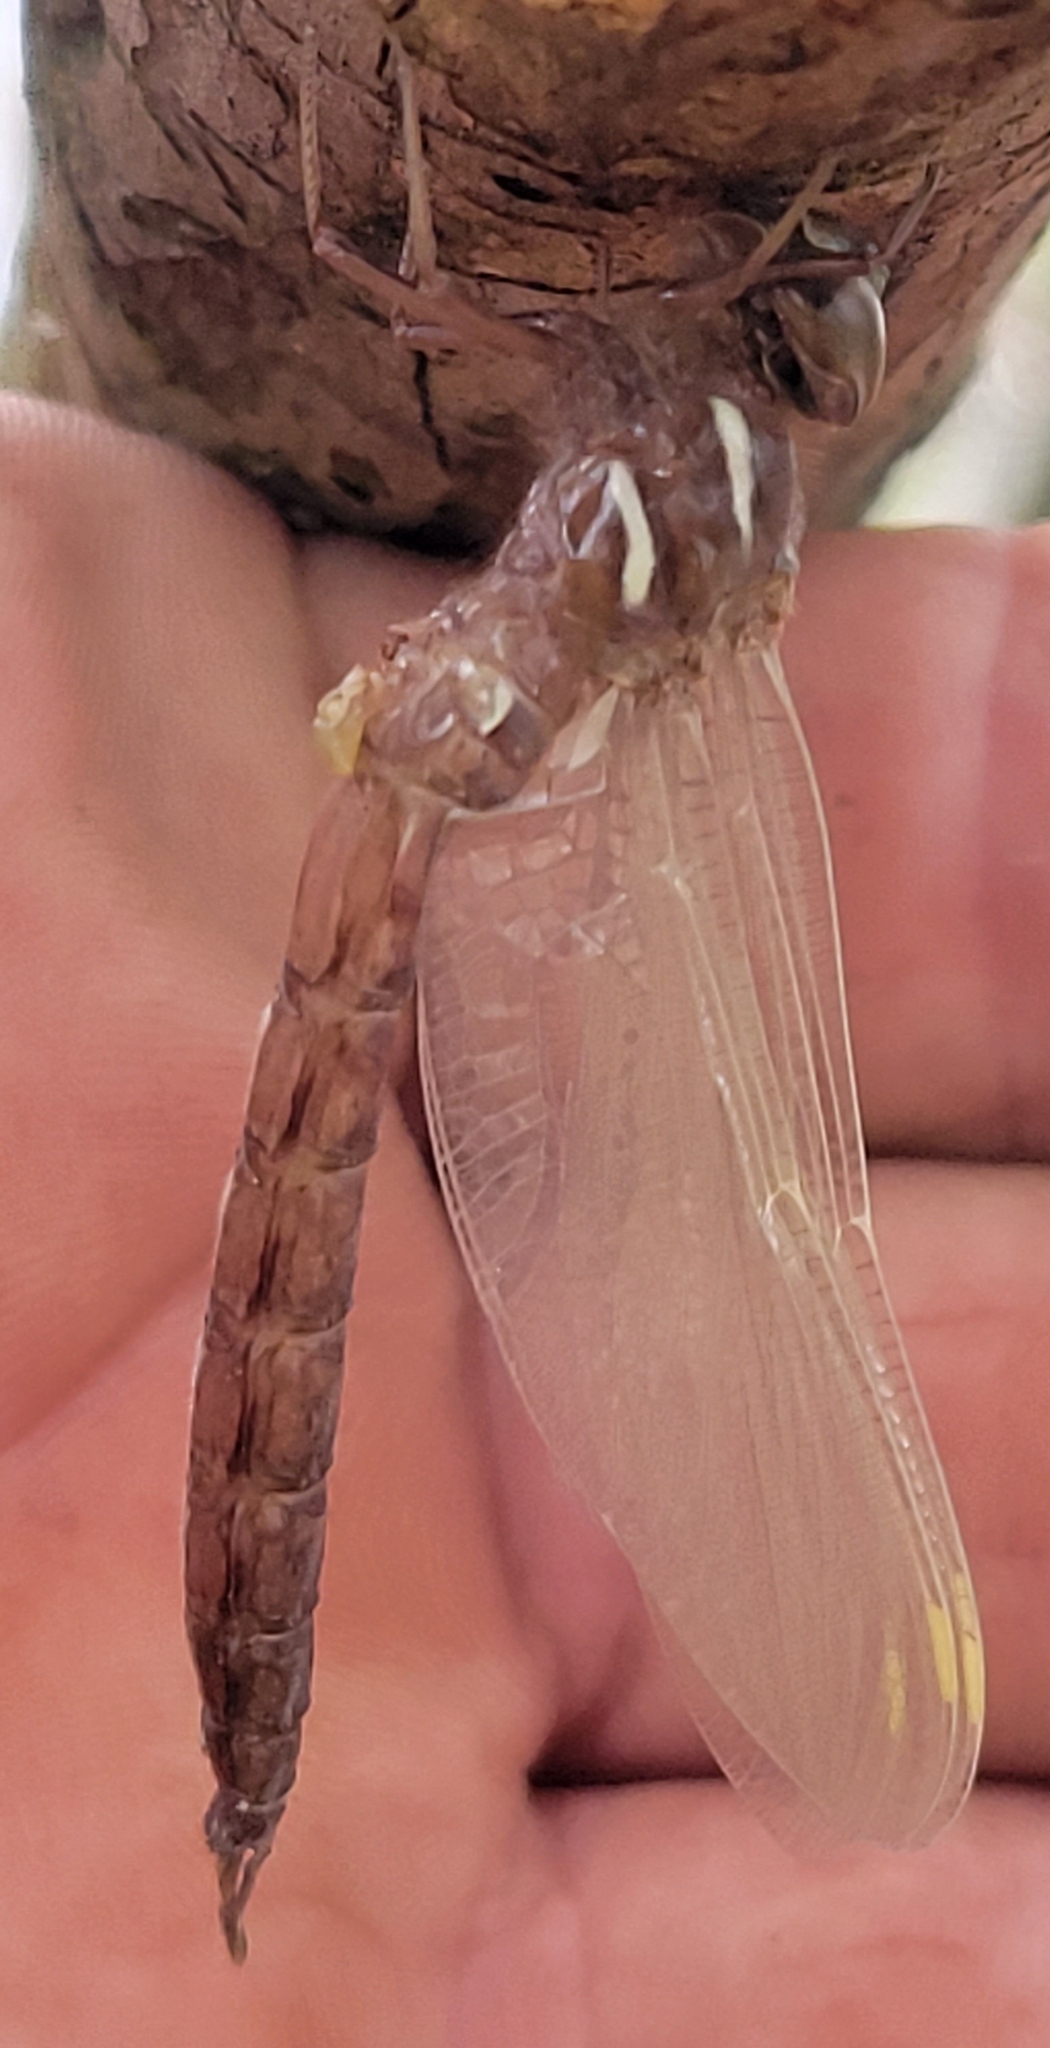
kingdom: Animalia
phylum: Arthropoda
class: Insecta
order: Odonata
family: Aeshnidae
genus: Basiaeschna
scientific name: Basiaeschna janata
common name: Springtime darner
